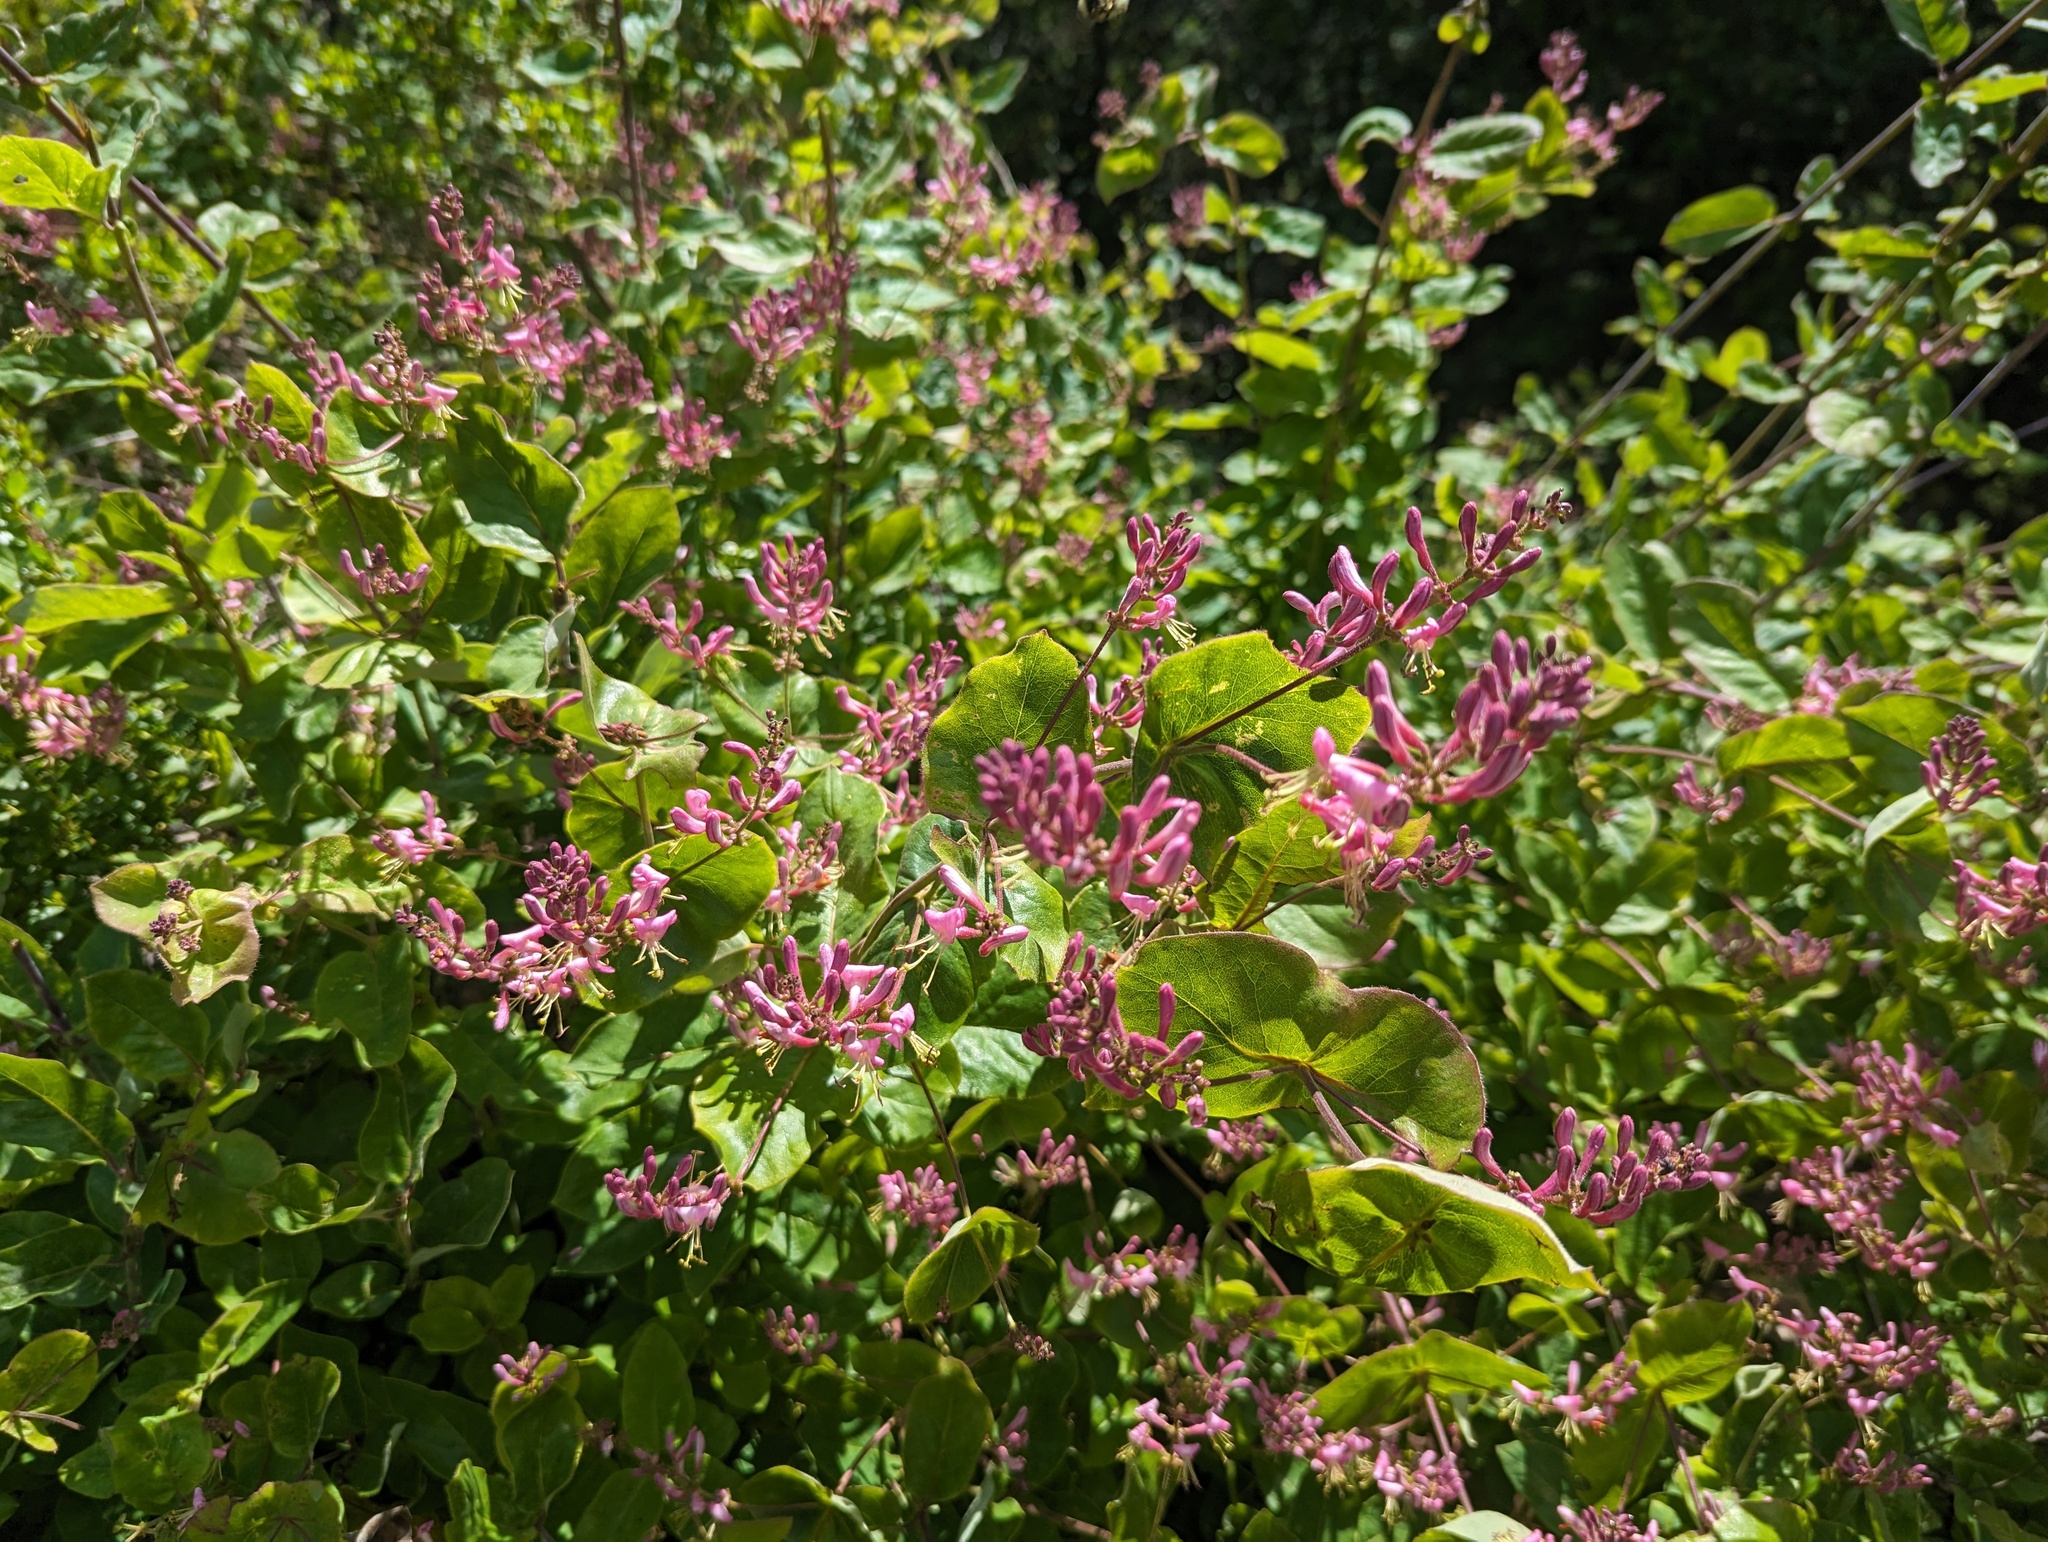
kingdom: Plantae
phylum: Tracheophyta
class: Magnoliopsida
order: Dipsacales
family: Caprifoliaceae
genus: Lonicera
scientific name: Lonicera hispidula
